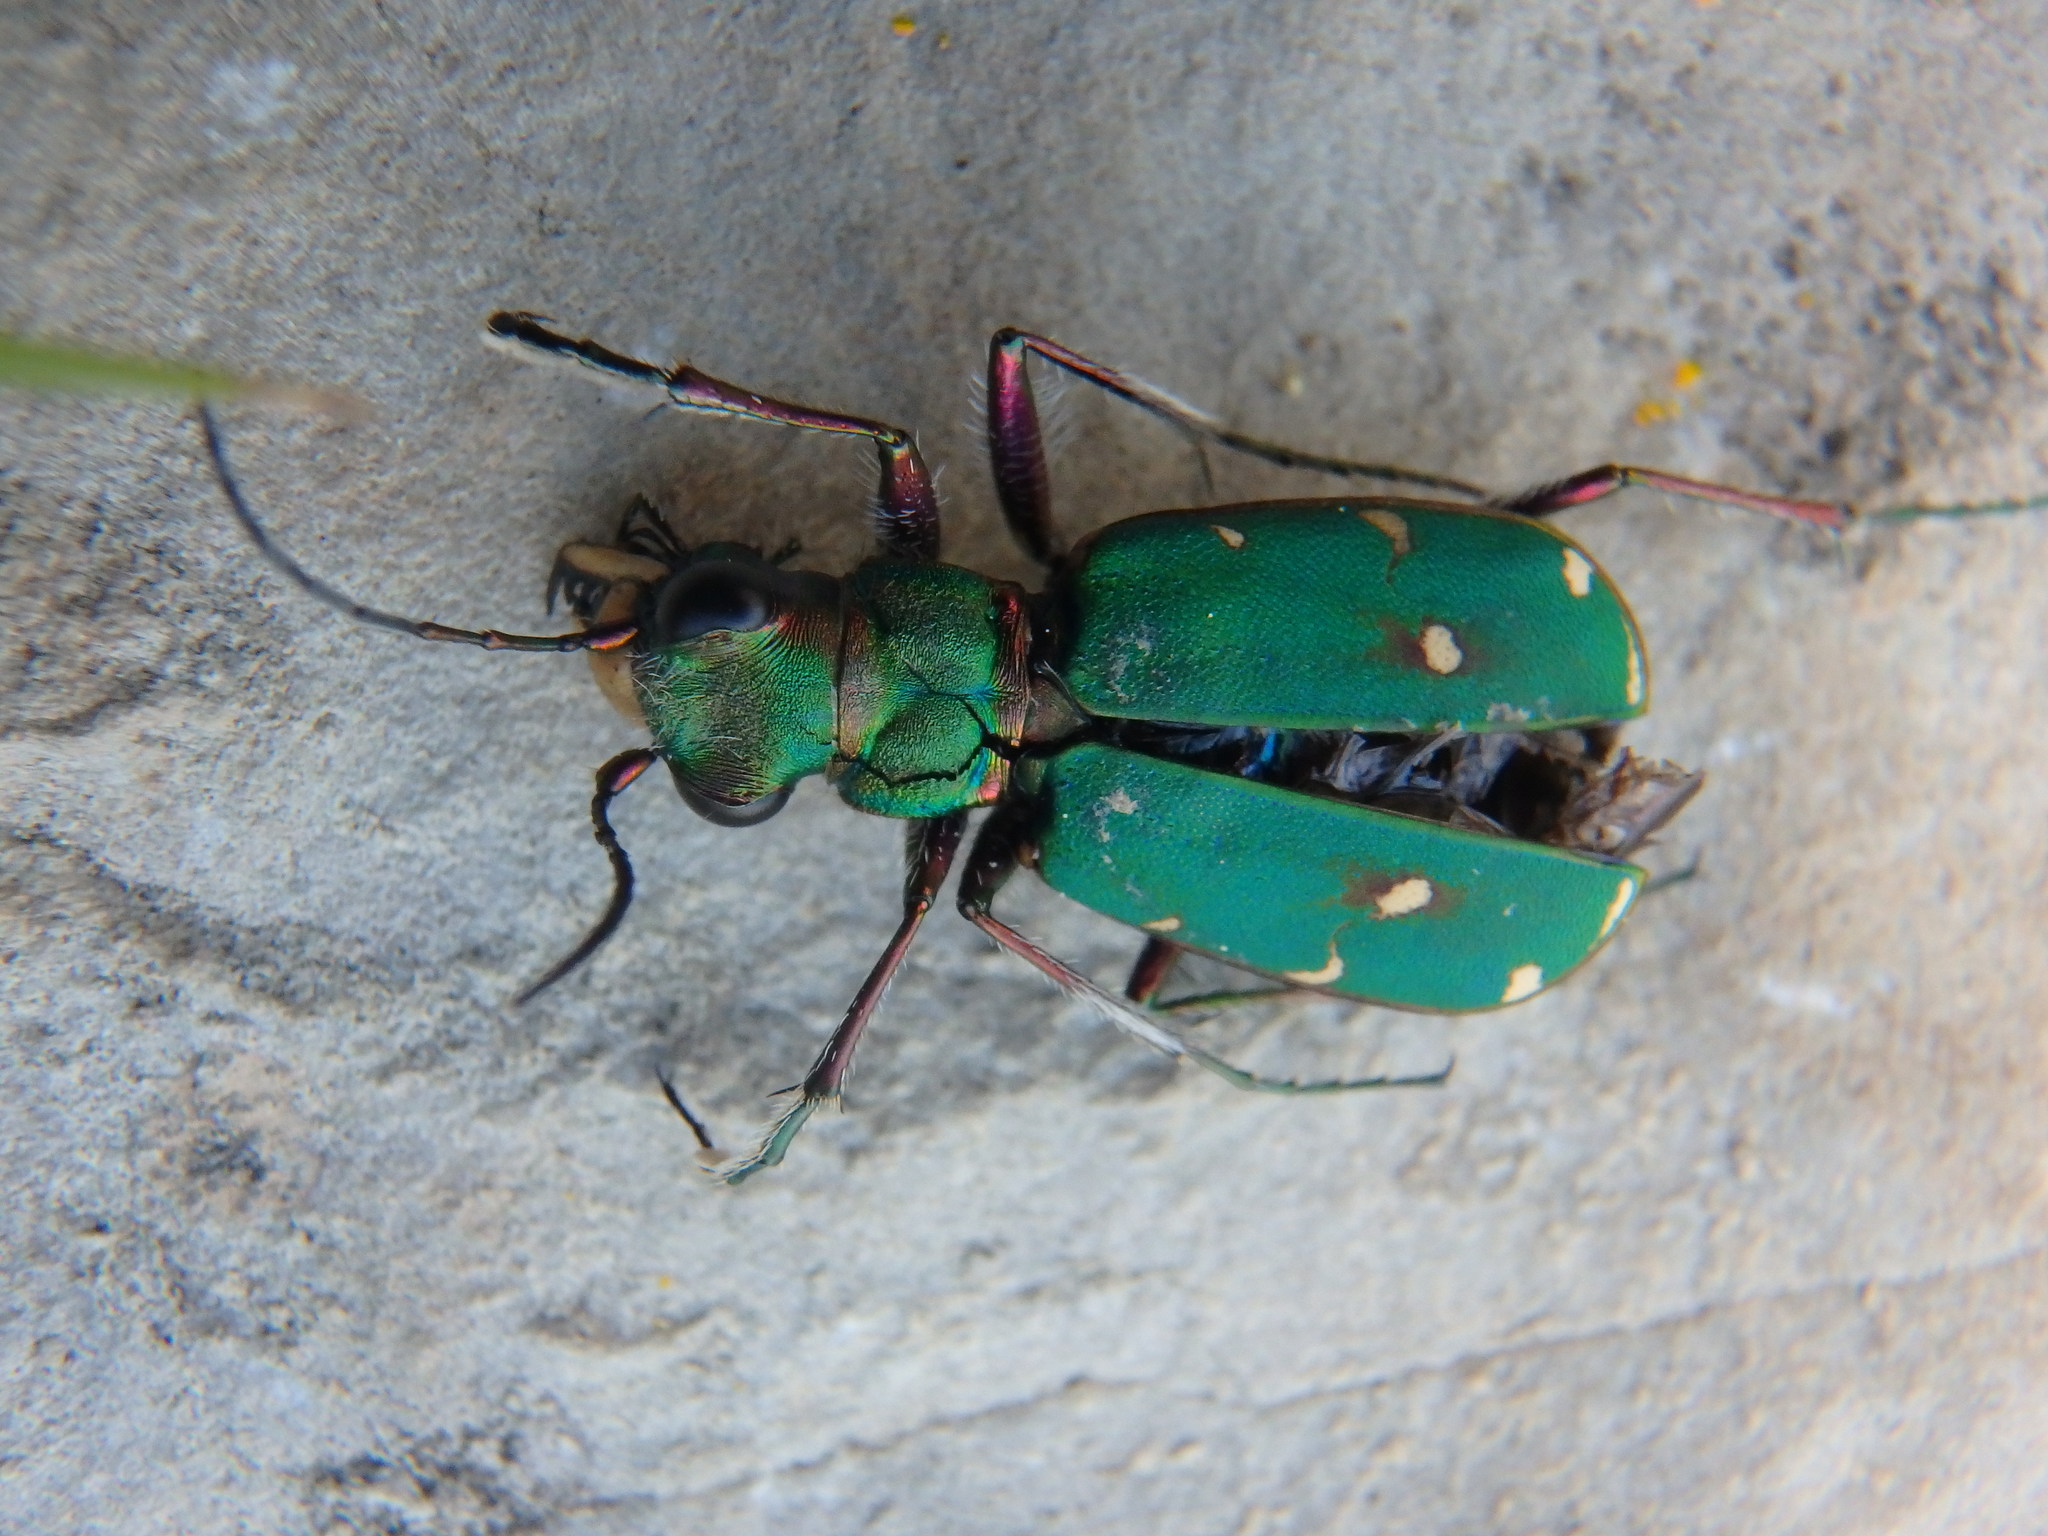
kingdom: Animalia
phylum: Arthropoda
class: Insecta
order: Coleoptera
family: Carabidae
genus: Cicindela
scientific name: Cicindela campestris
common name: Common tiger beetle
